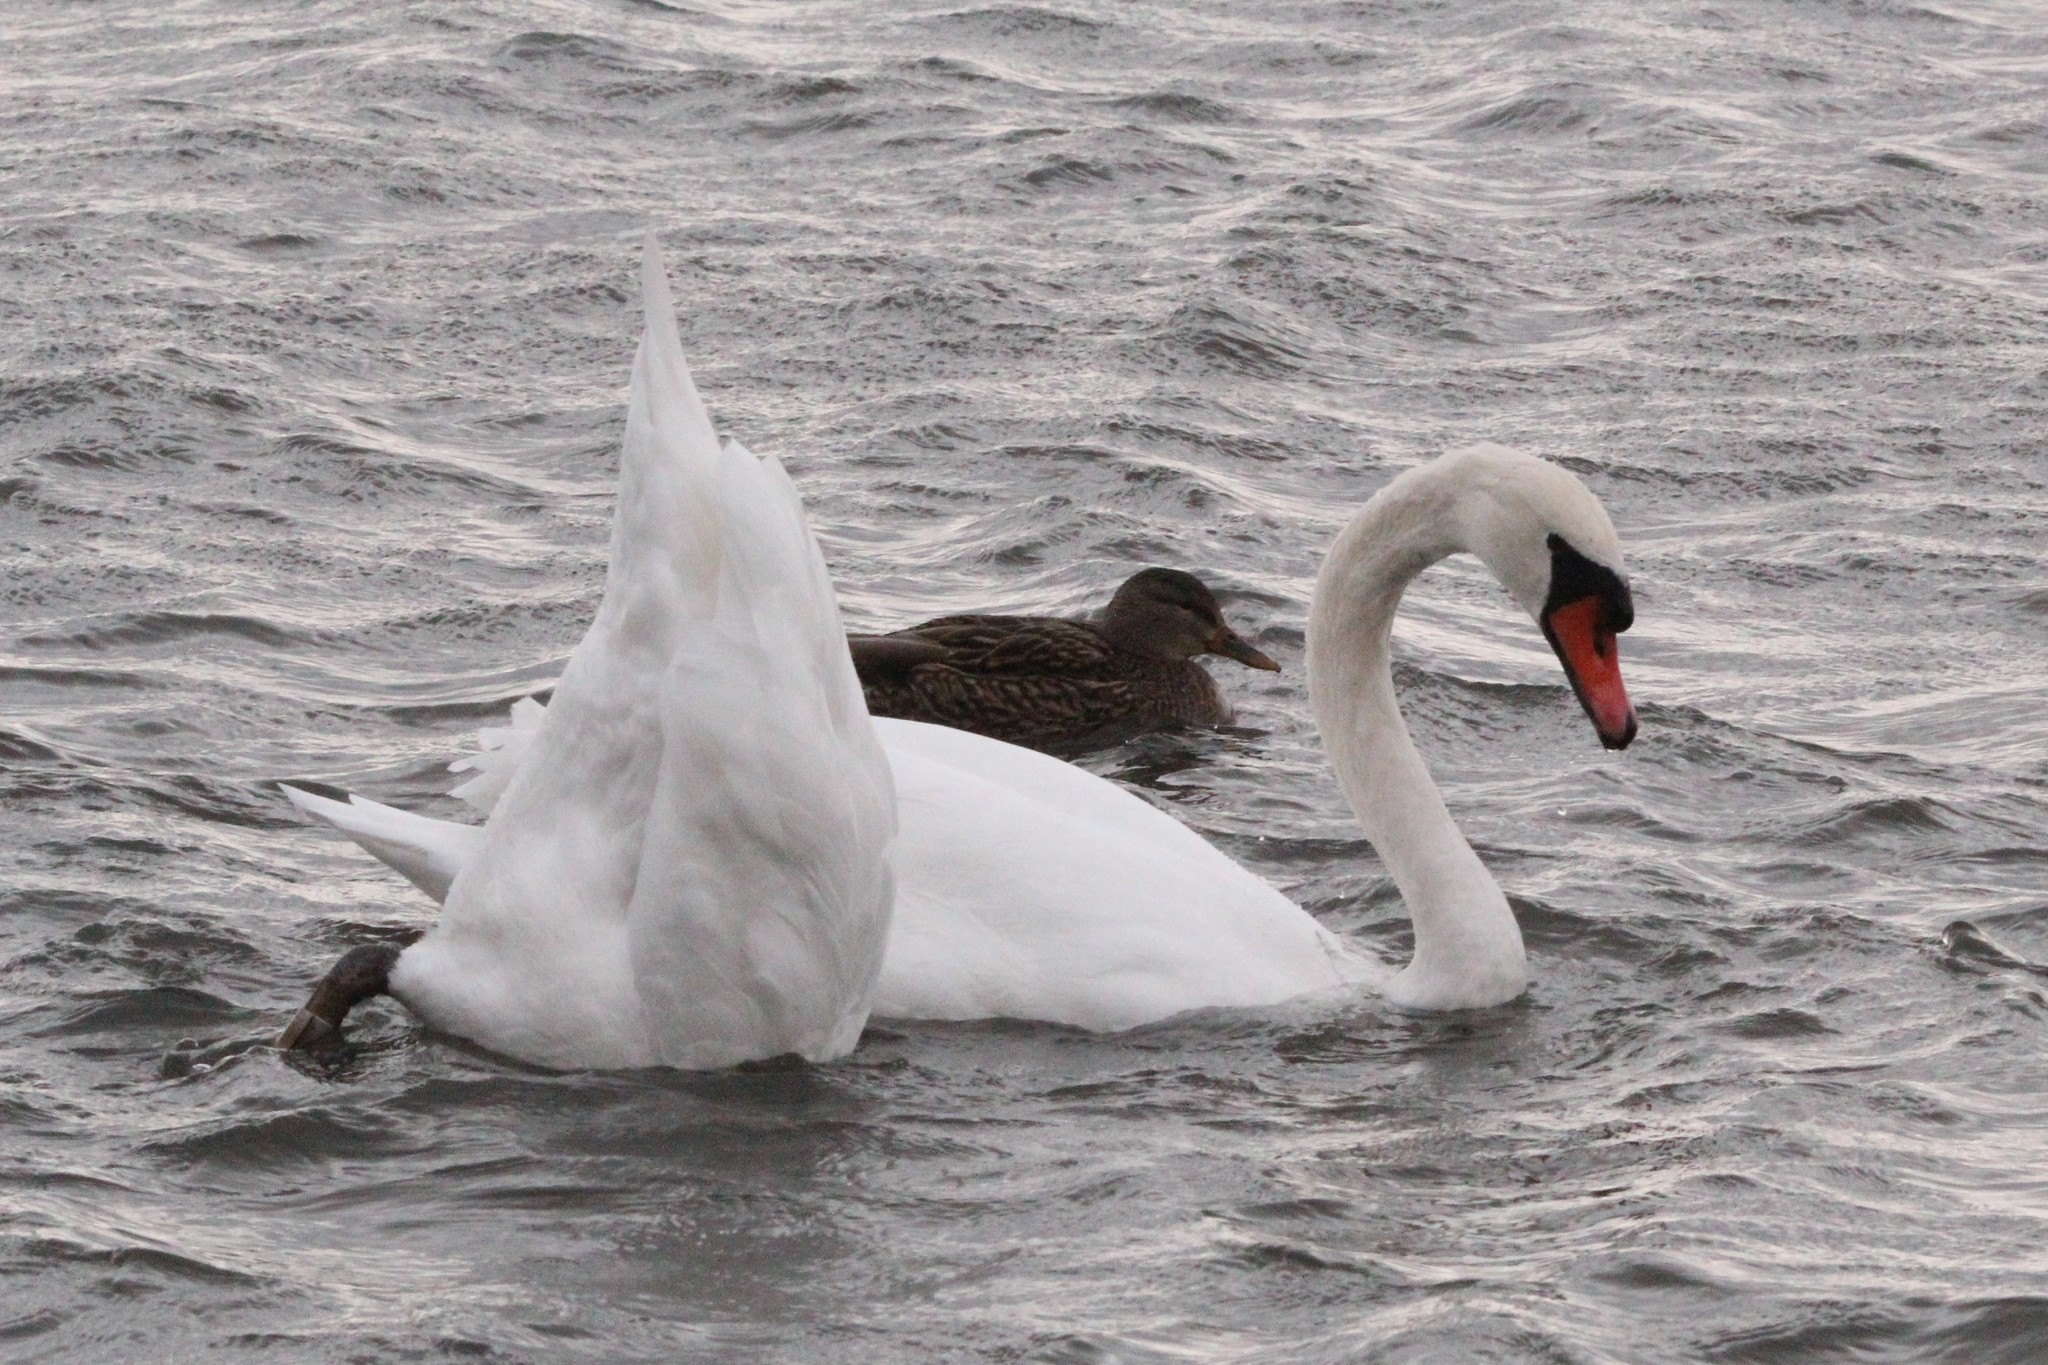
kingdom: Animalia
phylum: Chordata
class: Aves
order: Anseriformes
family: Anatidae
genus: Cygnus
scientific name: Cygnus olor
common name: Mute swan
